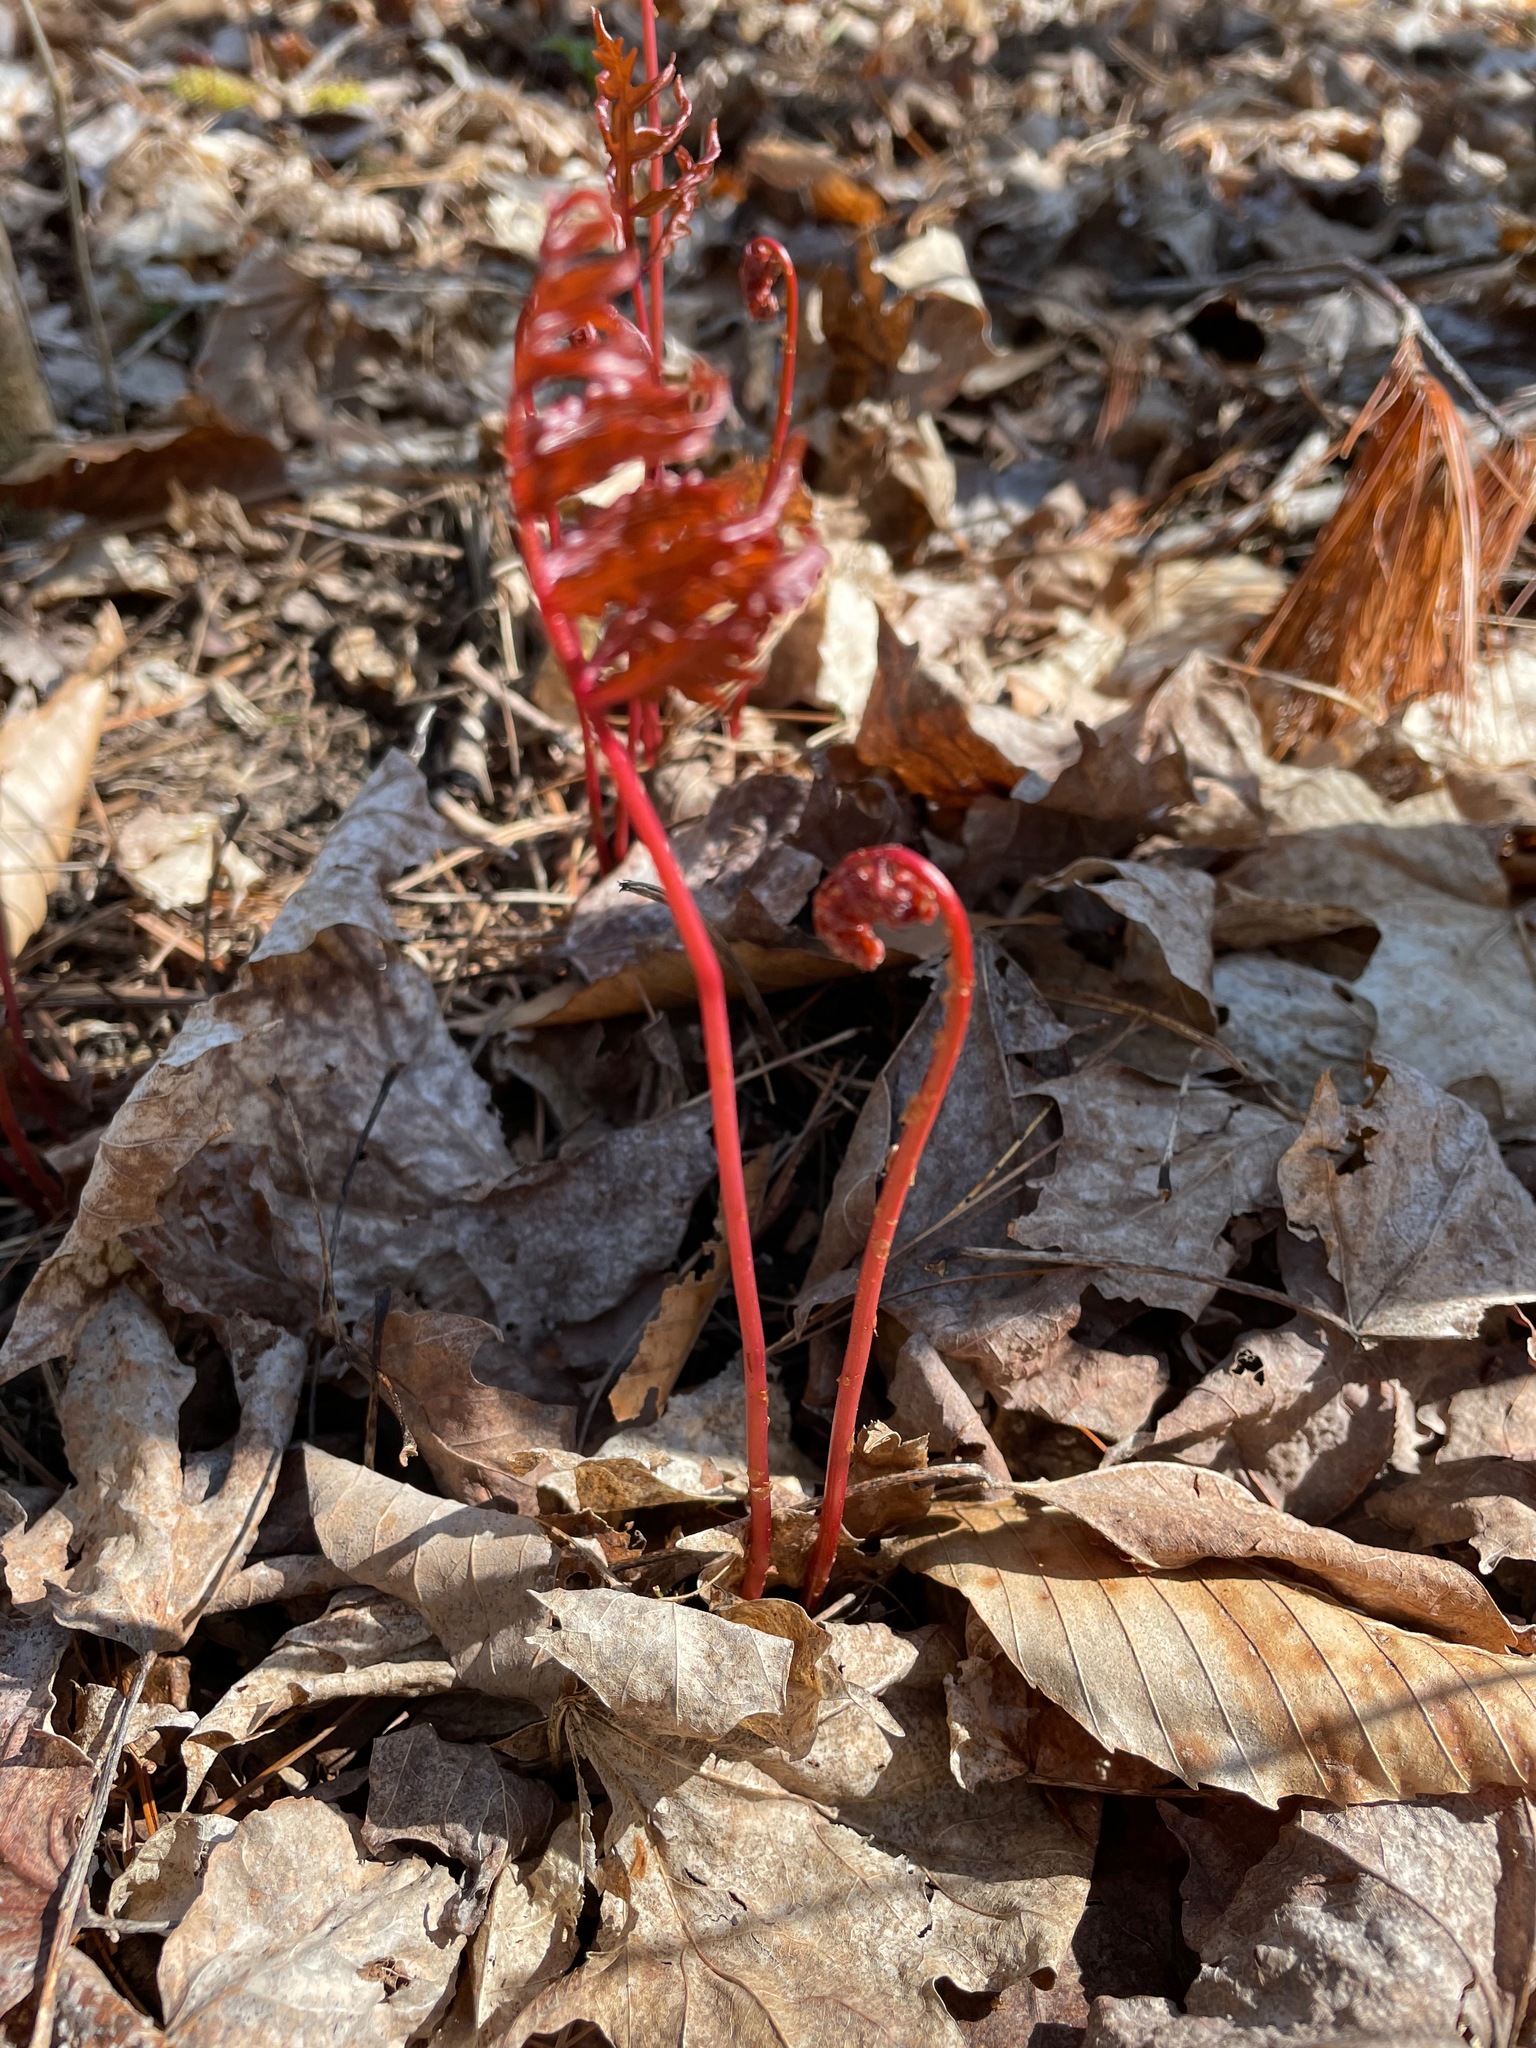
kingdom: Plantae
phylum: Tracheophyta
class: Polypodiopsida
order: Polypodiales
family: Onocleaceae
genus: Onoclea
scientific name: Onoclea sensibilis
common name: Sensitive fern
